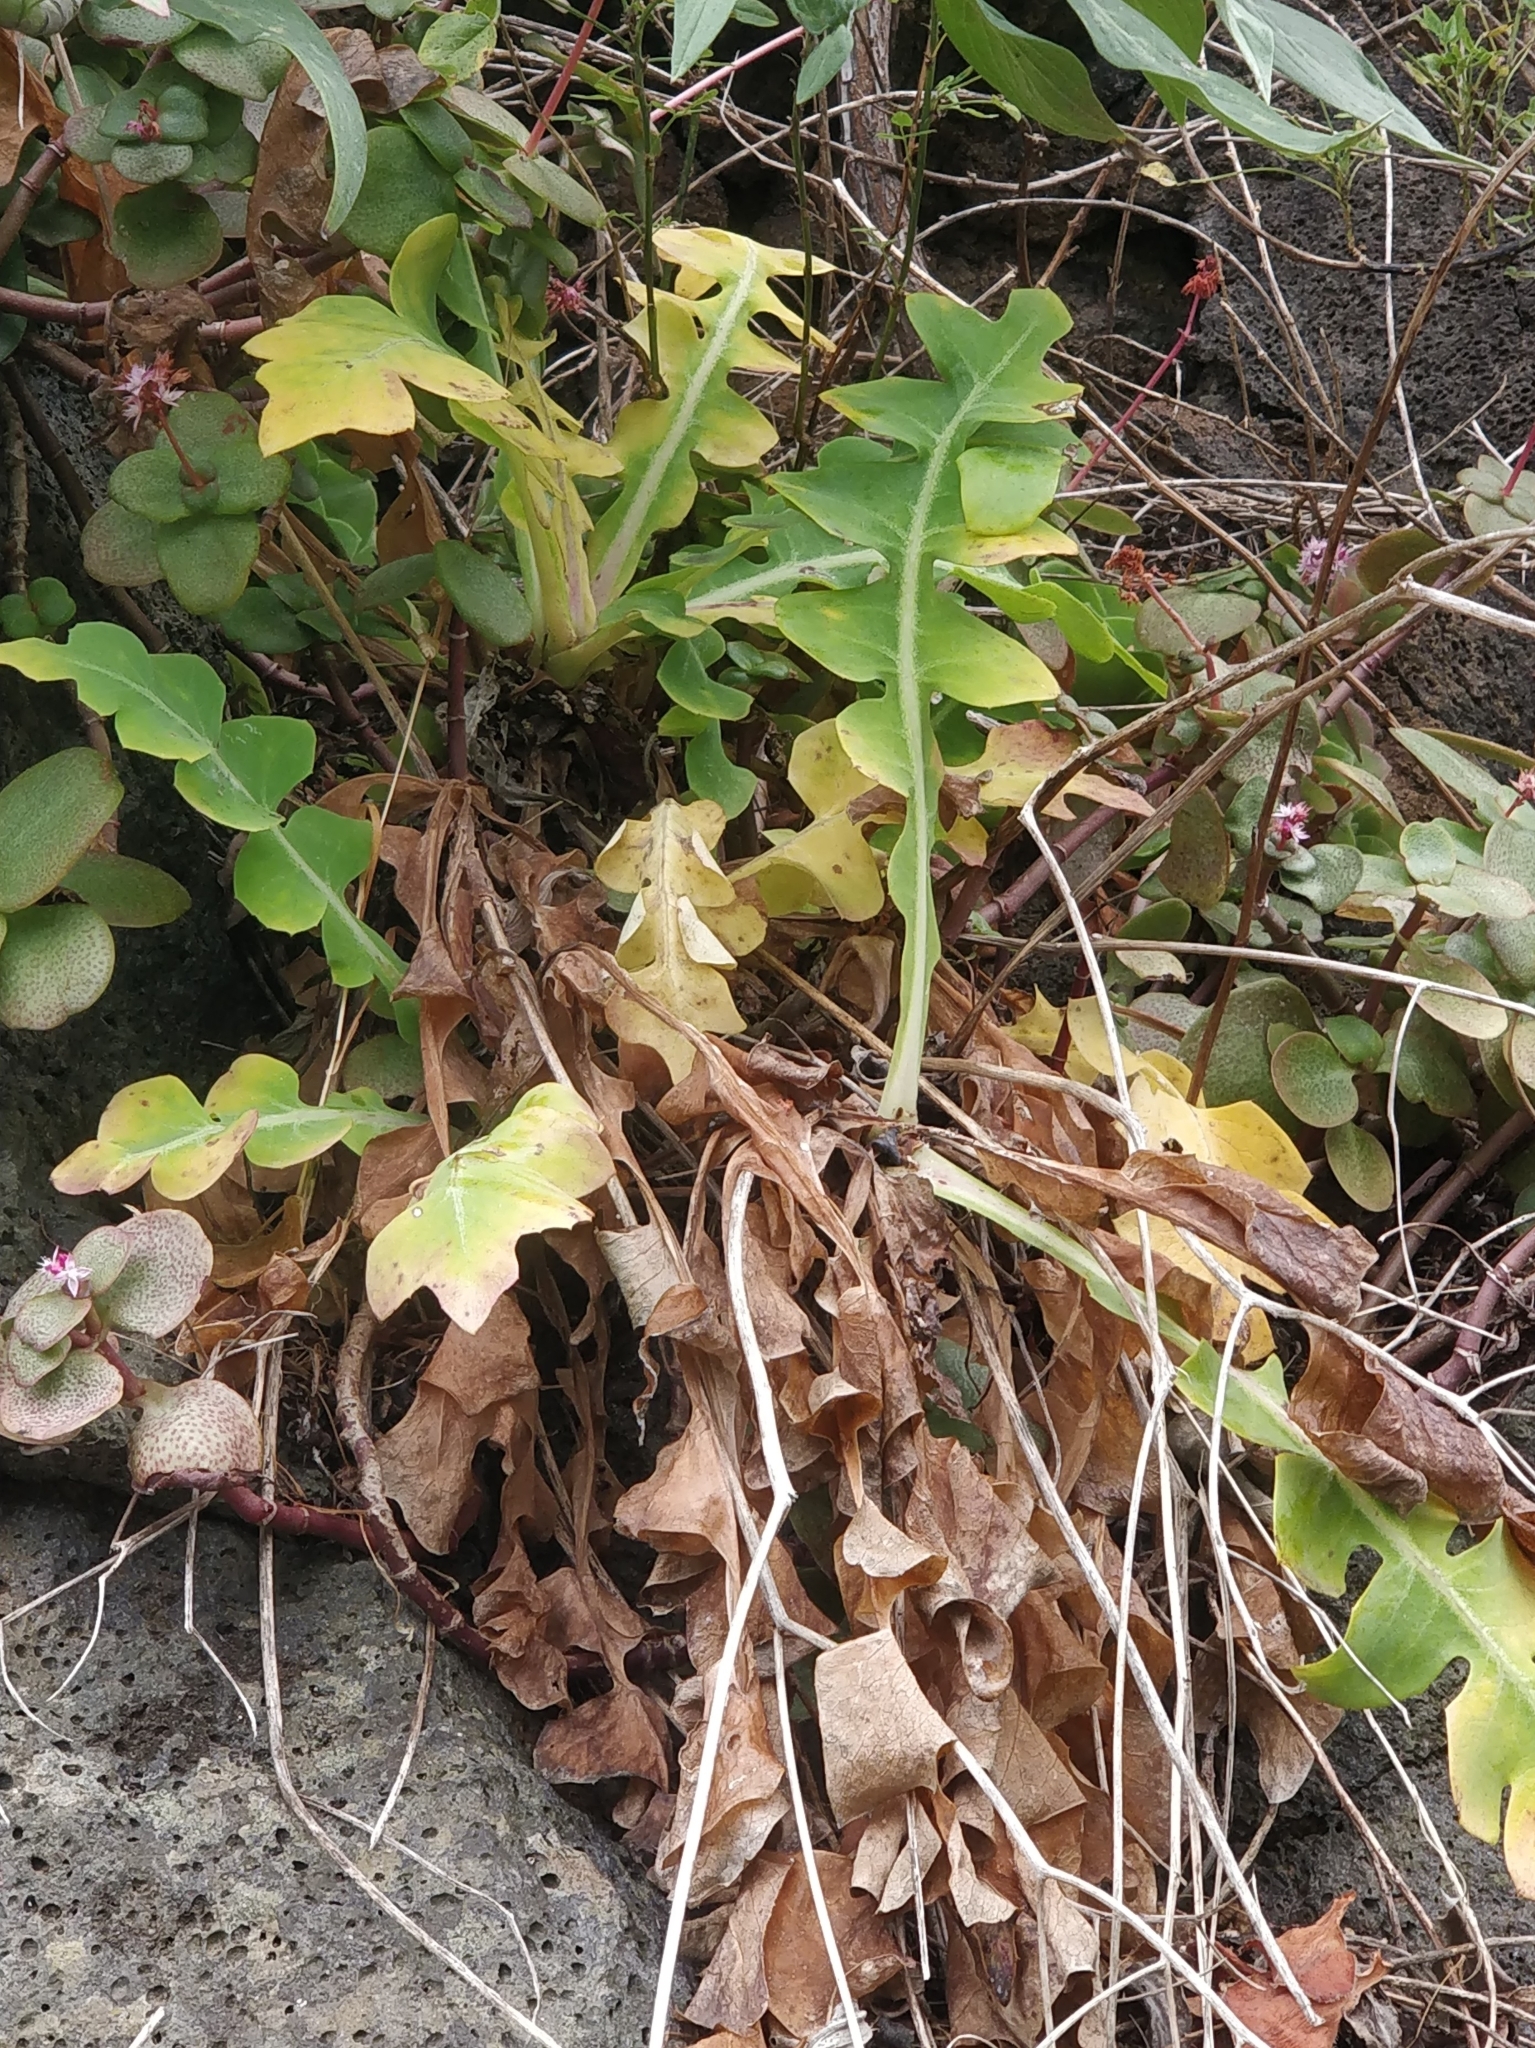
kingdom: Plantae
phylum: Tracheophyta
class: Magnoliopsida
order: Asterales
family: Asteraceae
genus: Sonchus
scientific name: Sonchus latifolius
